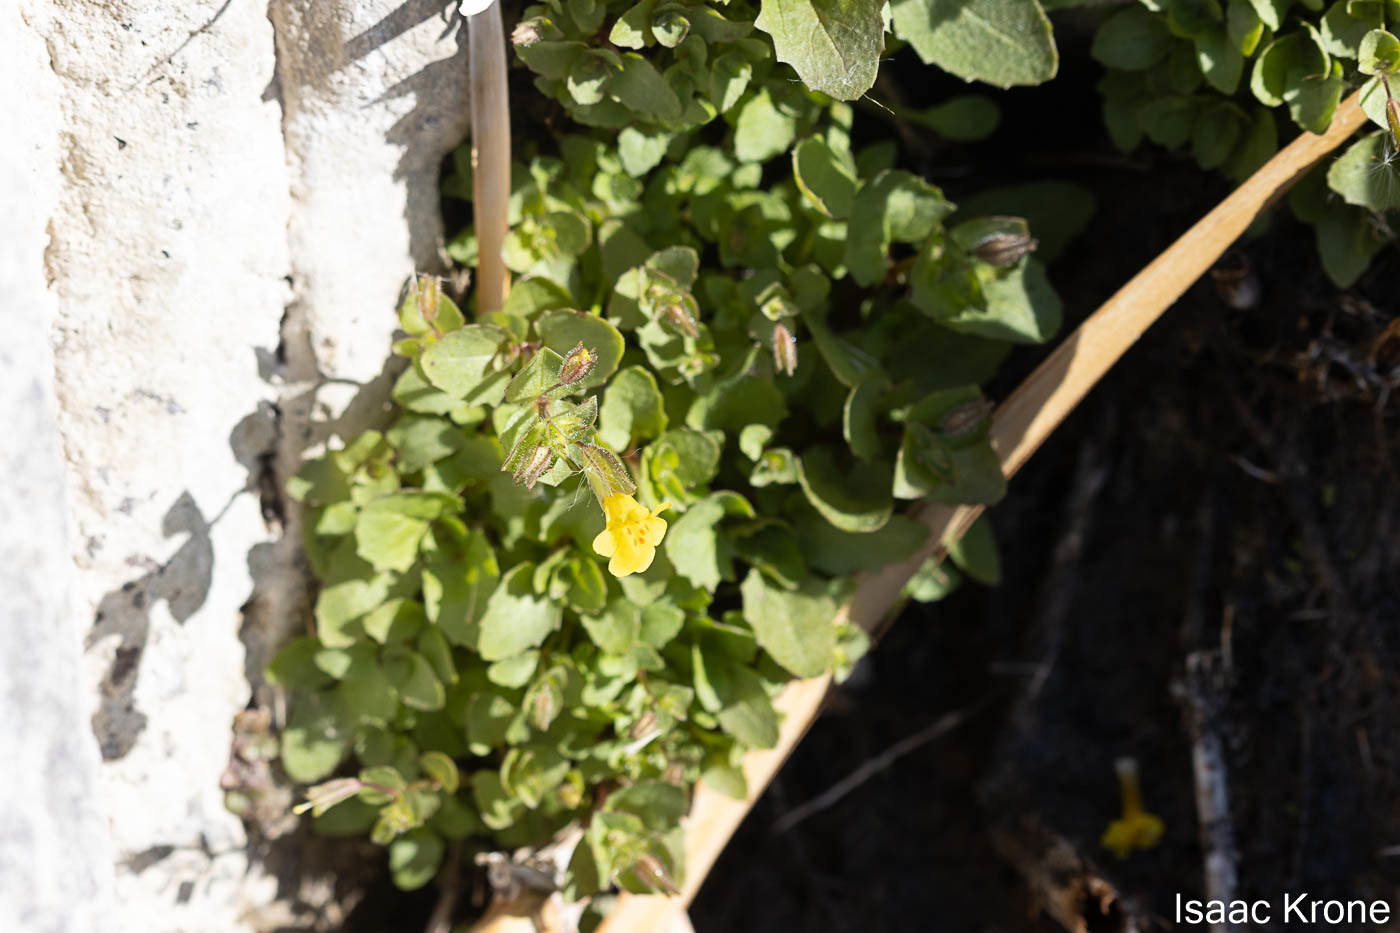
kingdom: Plantae
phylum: Tracheophyta
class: Magnoliopsida
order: Lamiales
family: Phrymaceae
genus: Erythranthe
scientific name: Erythranthe cordata
